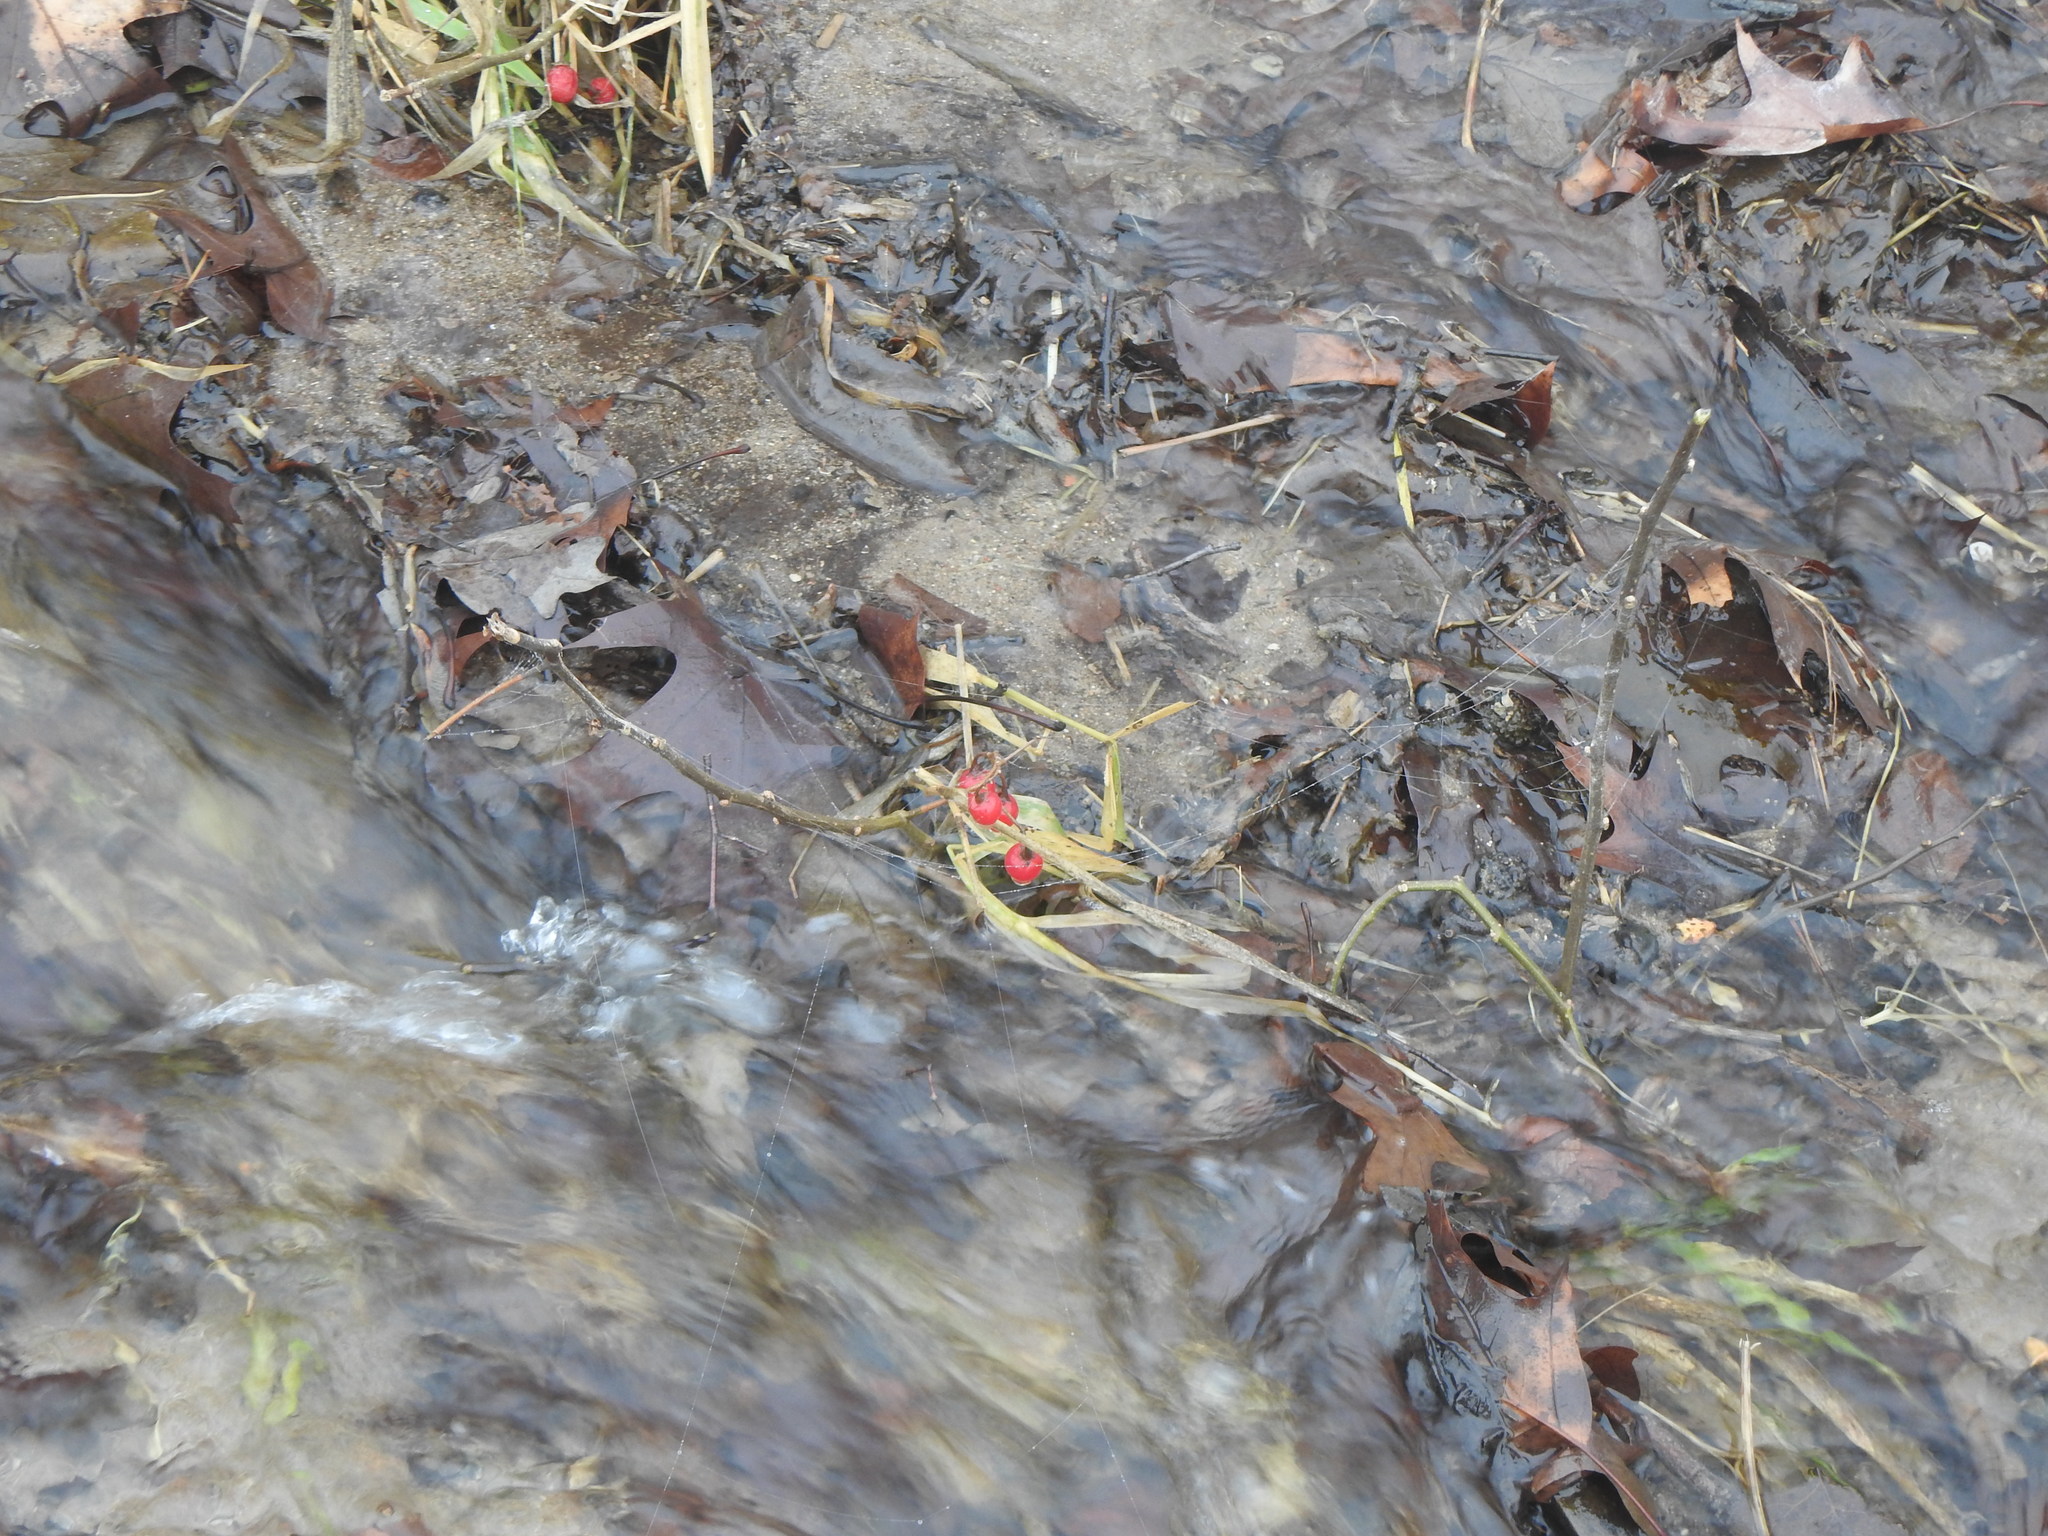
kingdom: Plantae
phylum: Tracheophyta
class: Magnoliopsida
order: Solanales
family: Solanaceae
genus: Solanum
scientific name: Solanum dulcamara
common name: Climbing nightshade
